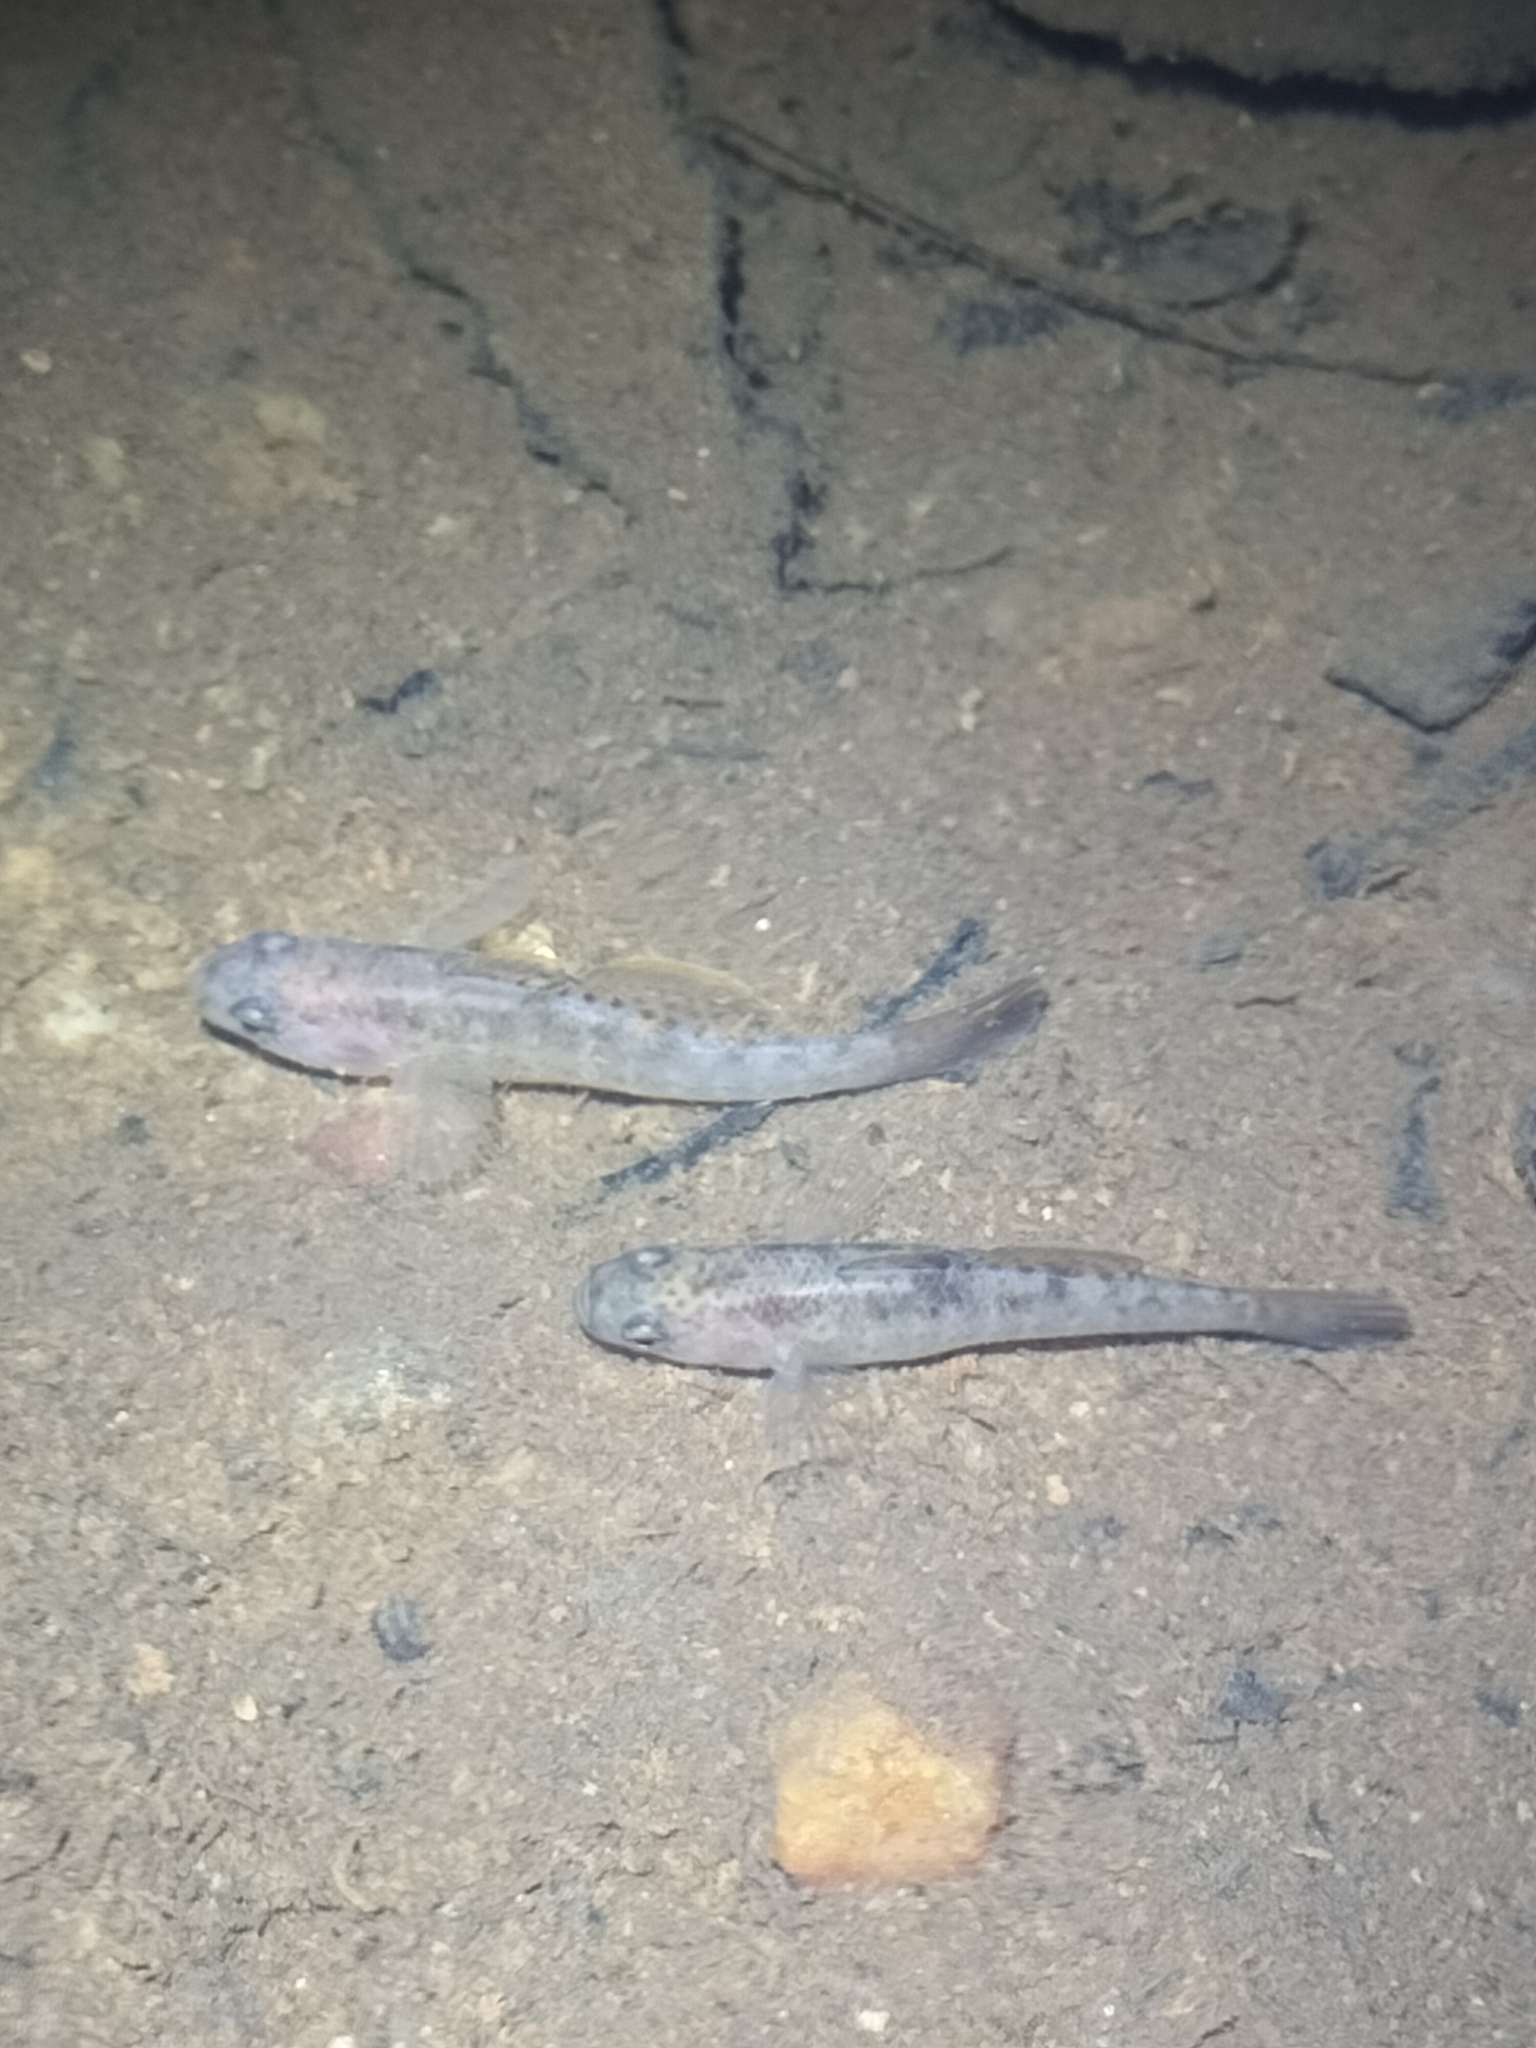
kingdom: Animalia
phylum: Chordata
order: Perciformes
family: Eleotridae
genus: Mogurnda
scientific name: Mogurnda mogurnda
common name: Northern purplespotted gudgeon
